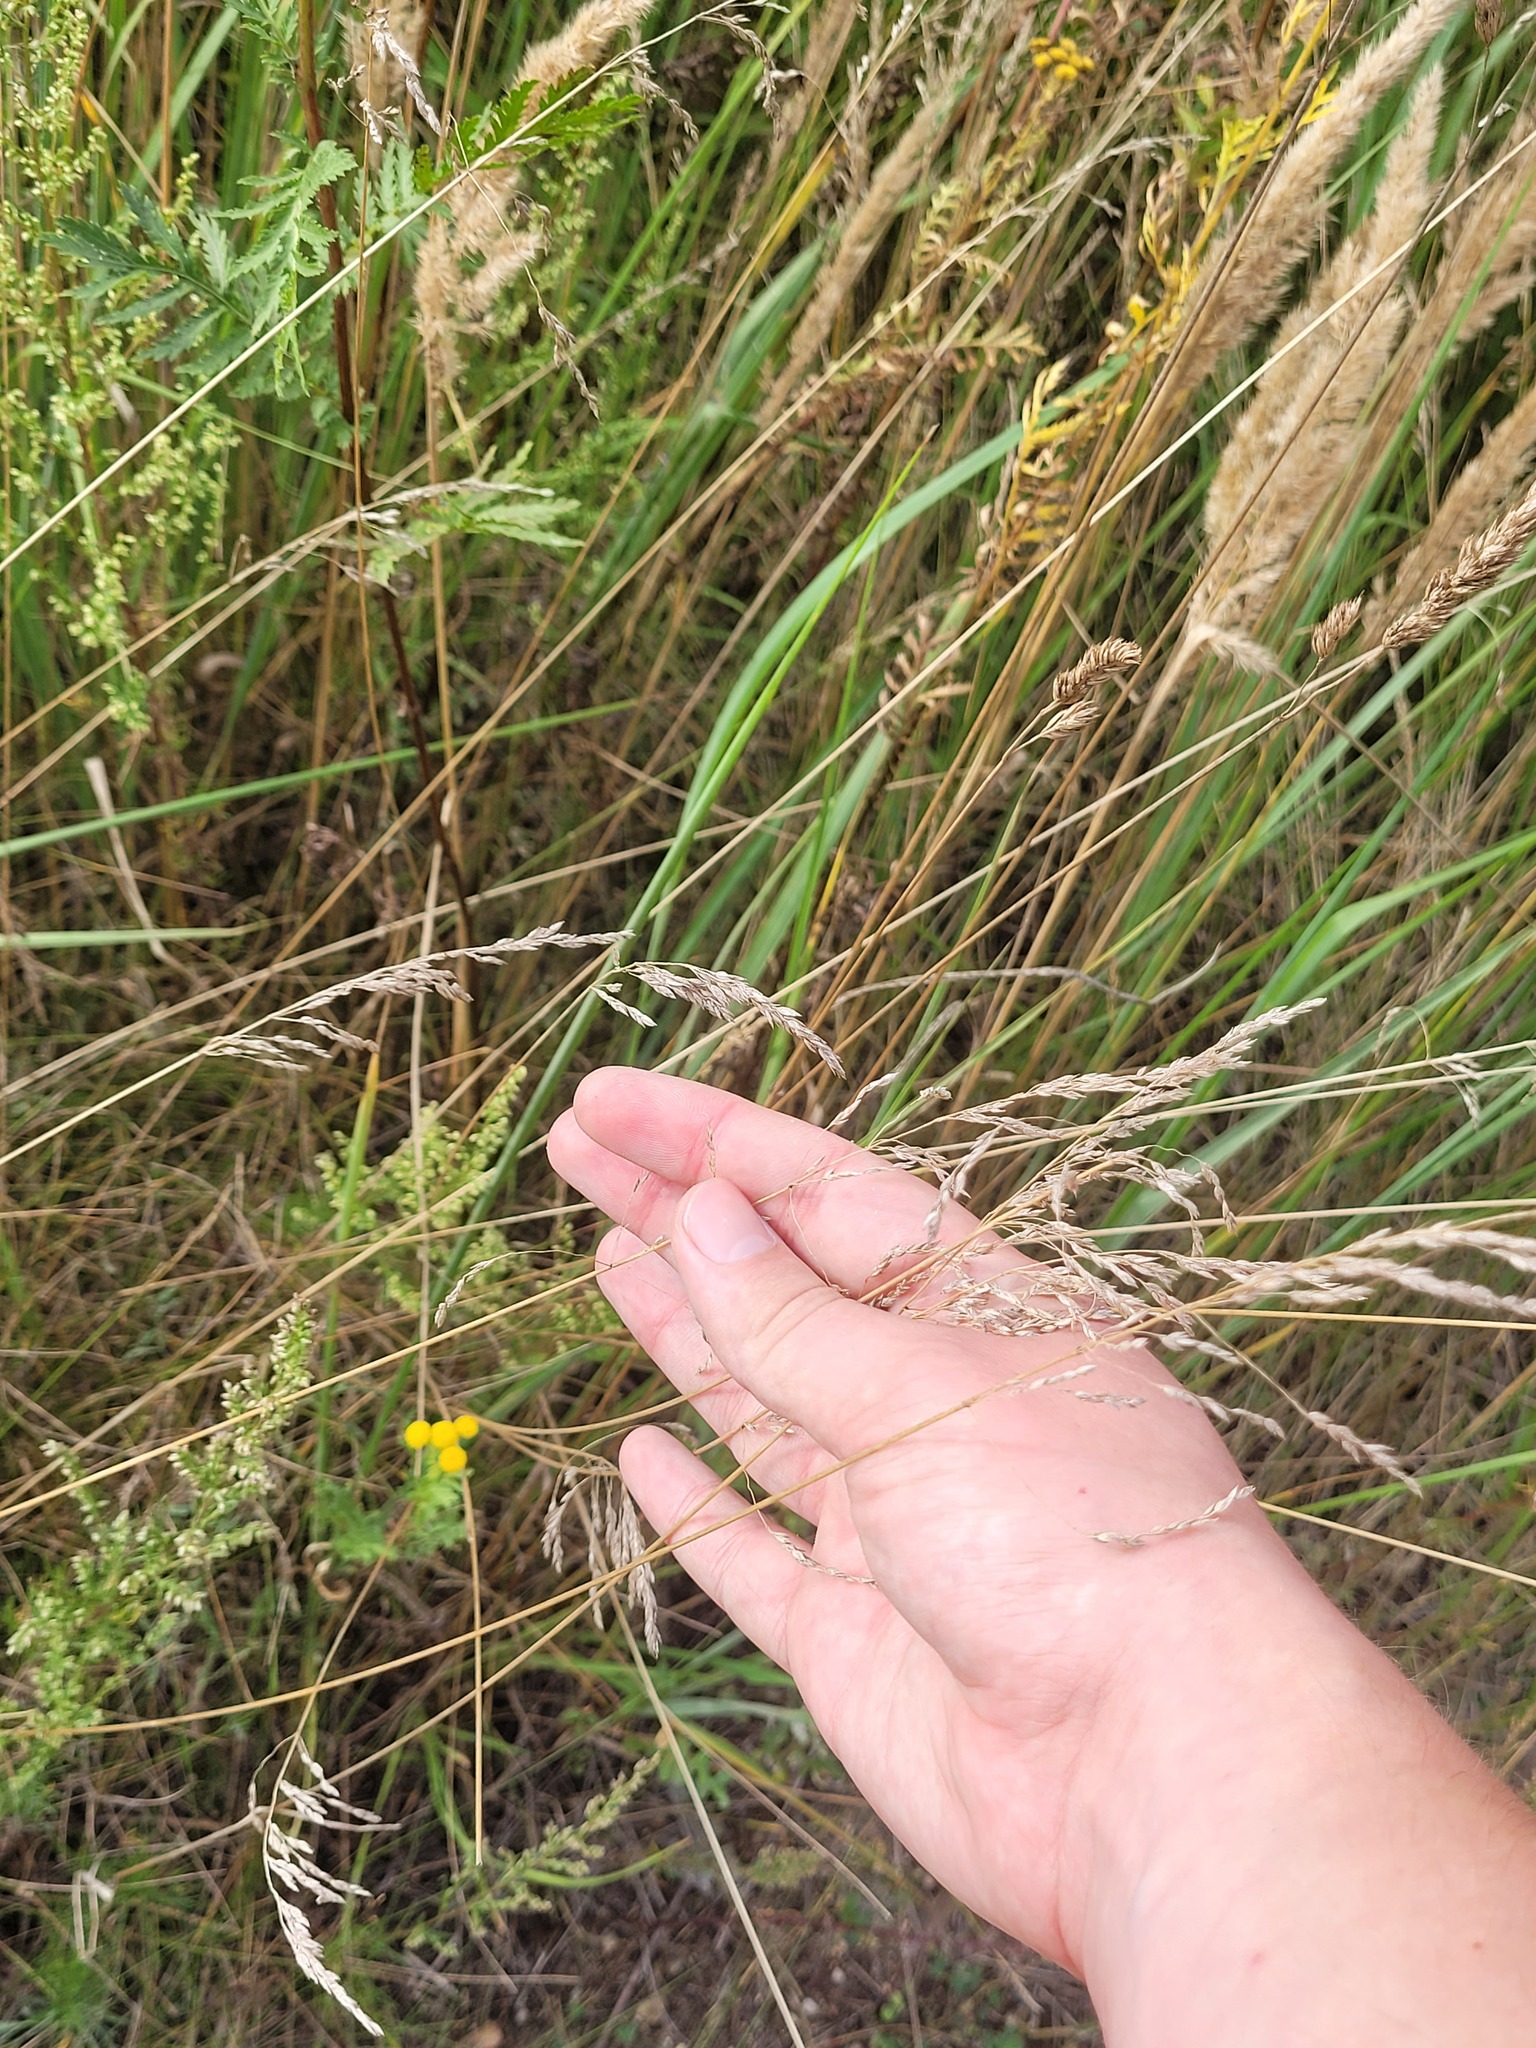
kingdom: Plantae
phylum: Tracheophyta
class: Liliopsida
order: Poales
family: Poaceae
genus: Poa
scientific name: Poa angustifolia
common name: Narrow-leaved meadow-grass
